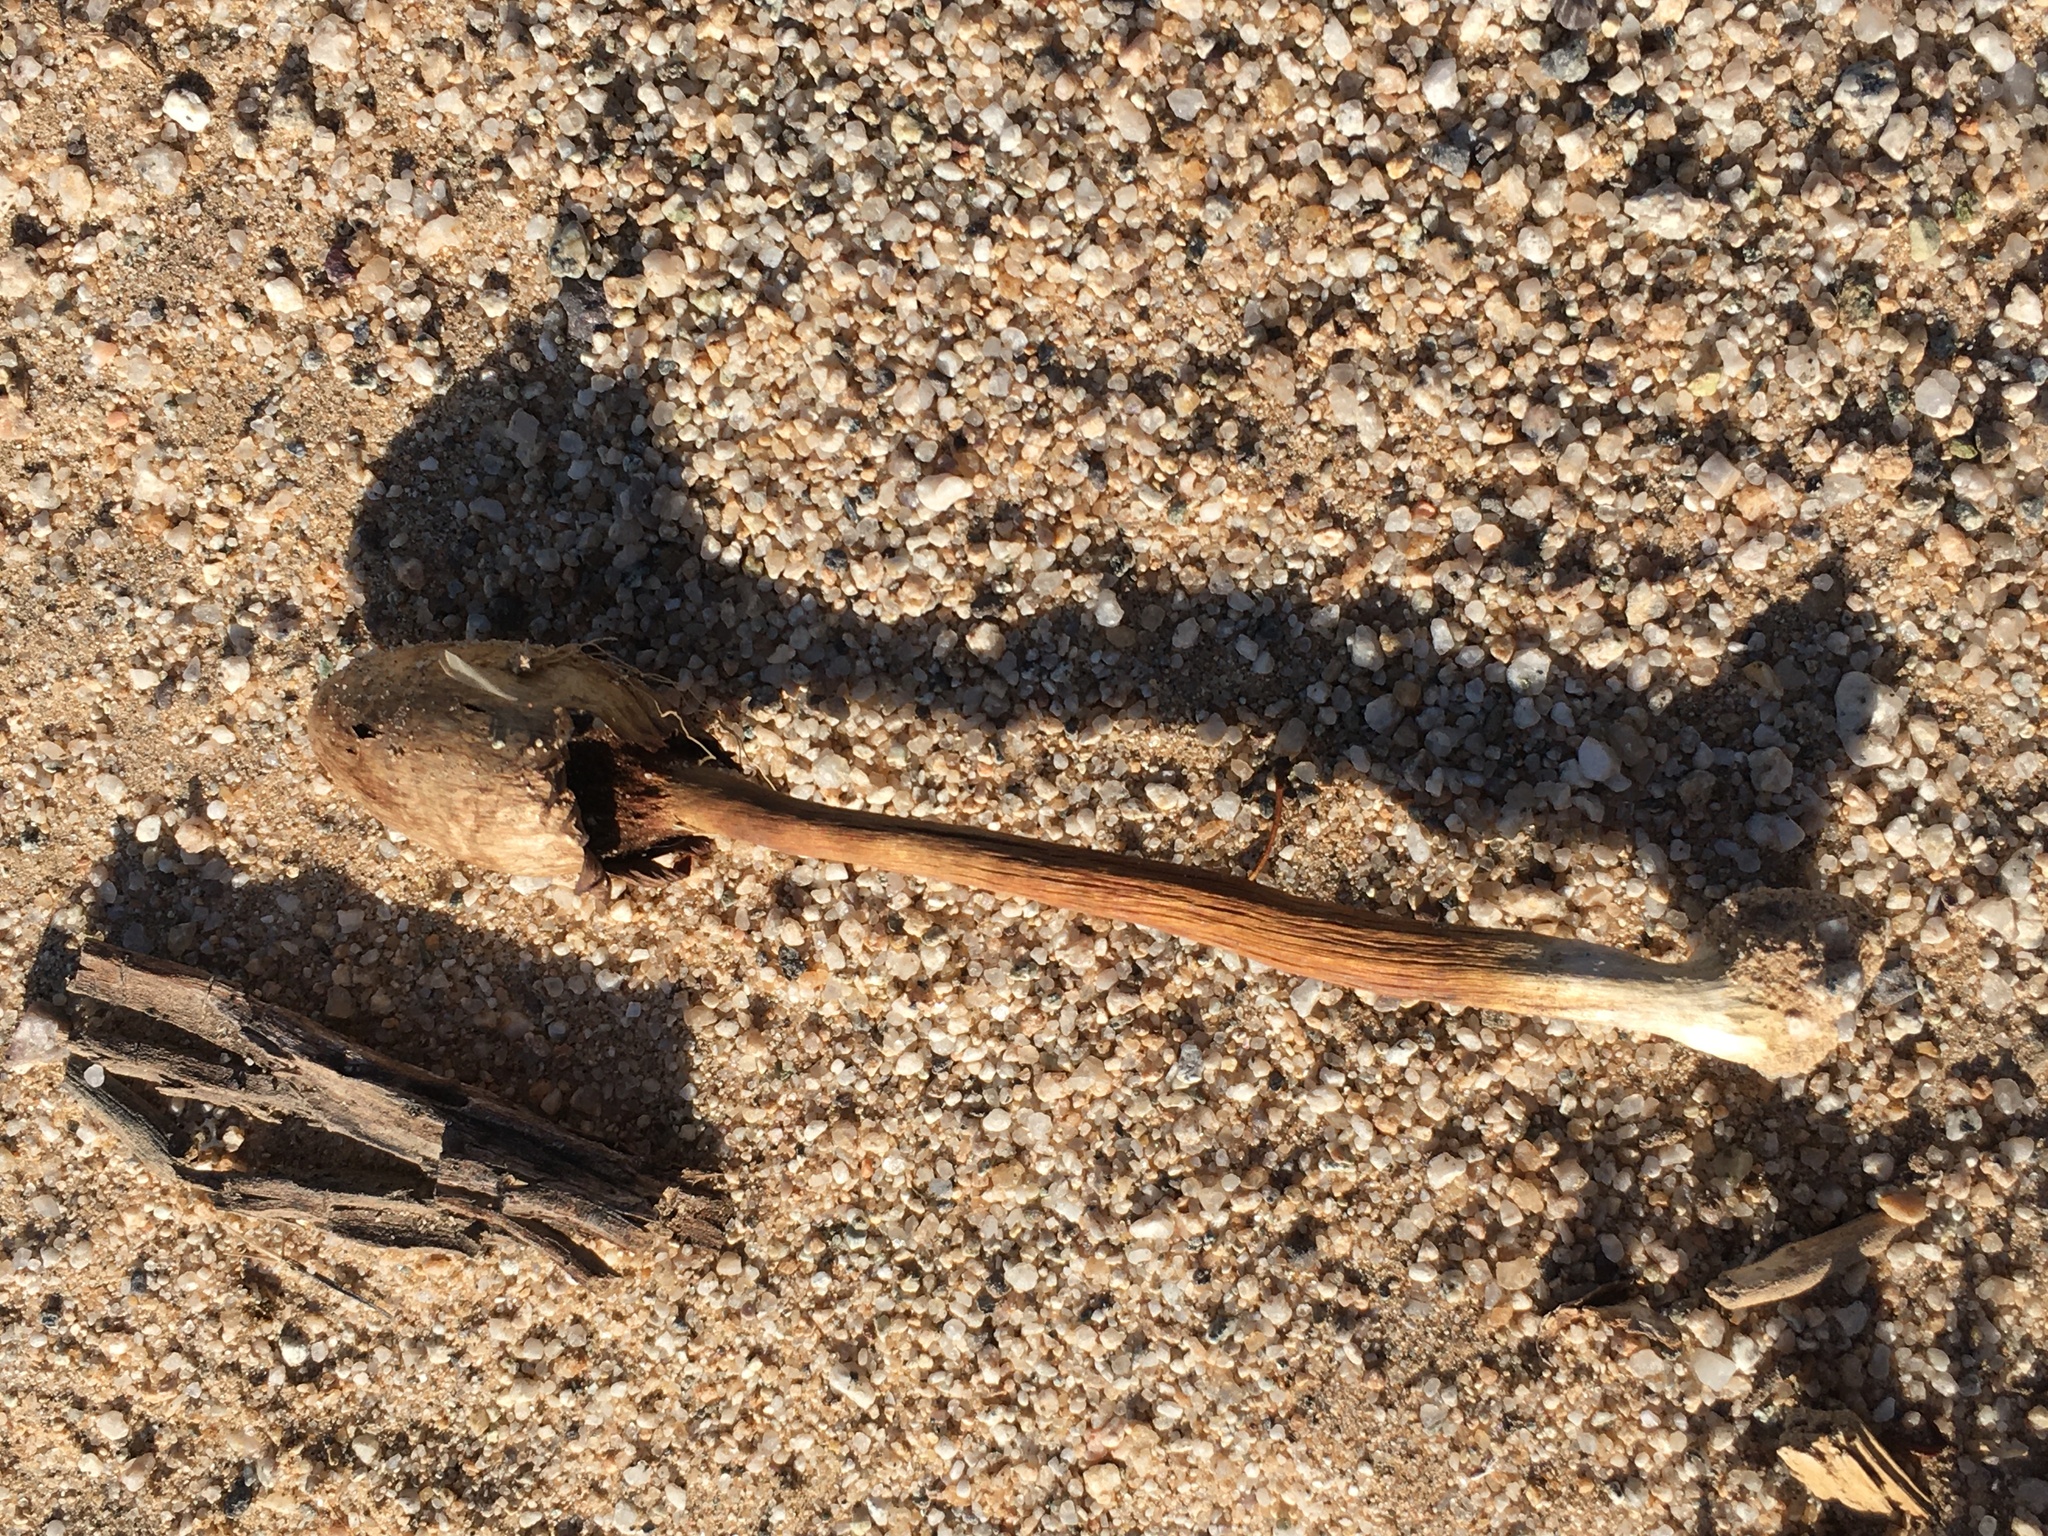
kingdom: Fungi
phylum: Basidiomycota
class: Agaricomycetes
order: Agaricales
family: Agaricaceae
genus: Podaxis
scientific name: Podaxis pistillaris
